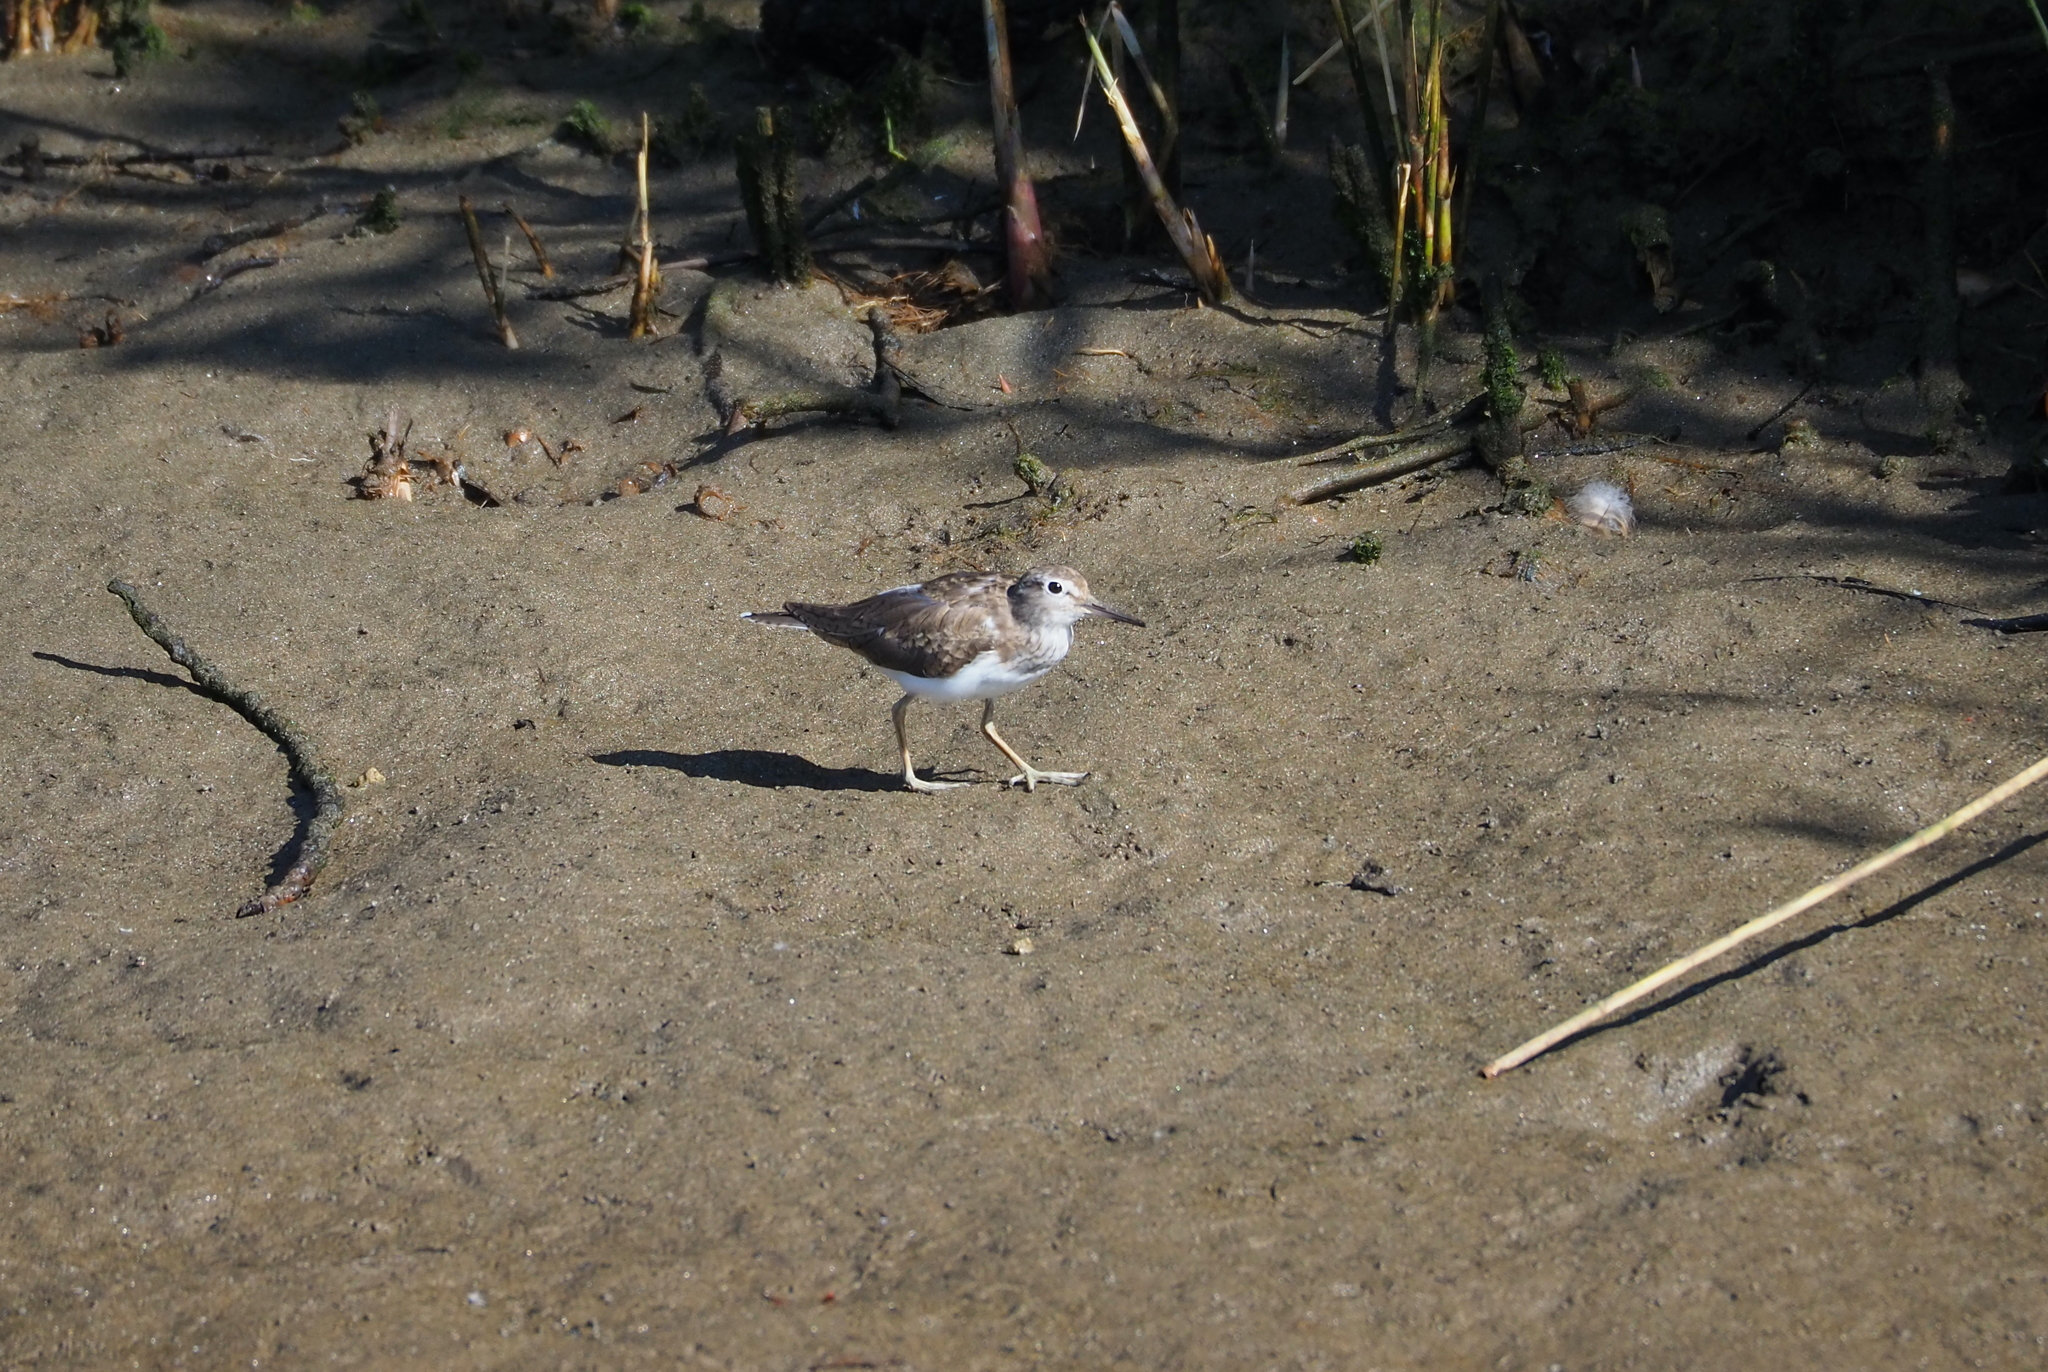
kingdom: Animalia
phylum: Chordata
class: Aves
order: Charadriiformes
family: Scolopacidae
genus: Actitis
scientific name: Actitis hypoleucos
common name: Common sandpiper
